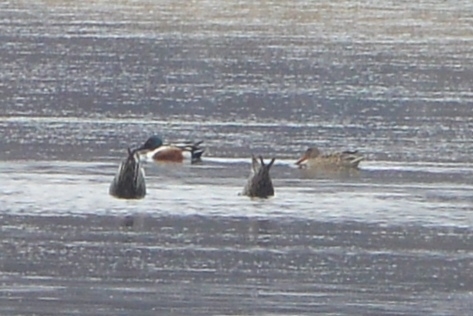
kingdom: Animalia
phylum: Chordata
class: Aves
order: Anseriformes
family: Anatidae
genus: Spatula
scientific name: Spatula clypeata
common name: Northern shoveler
